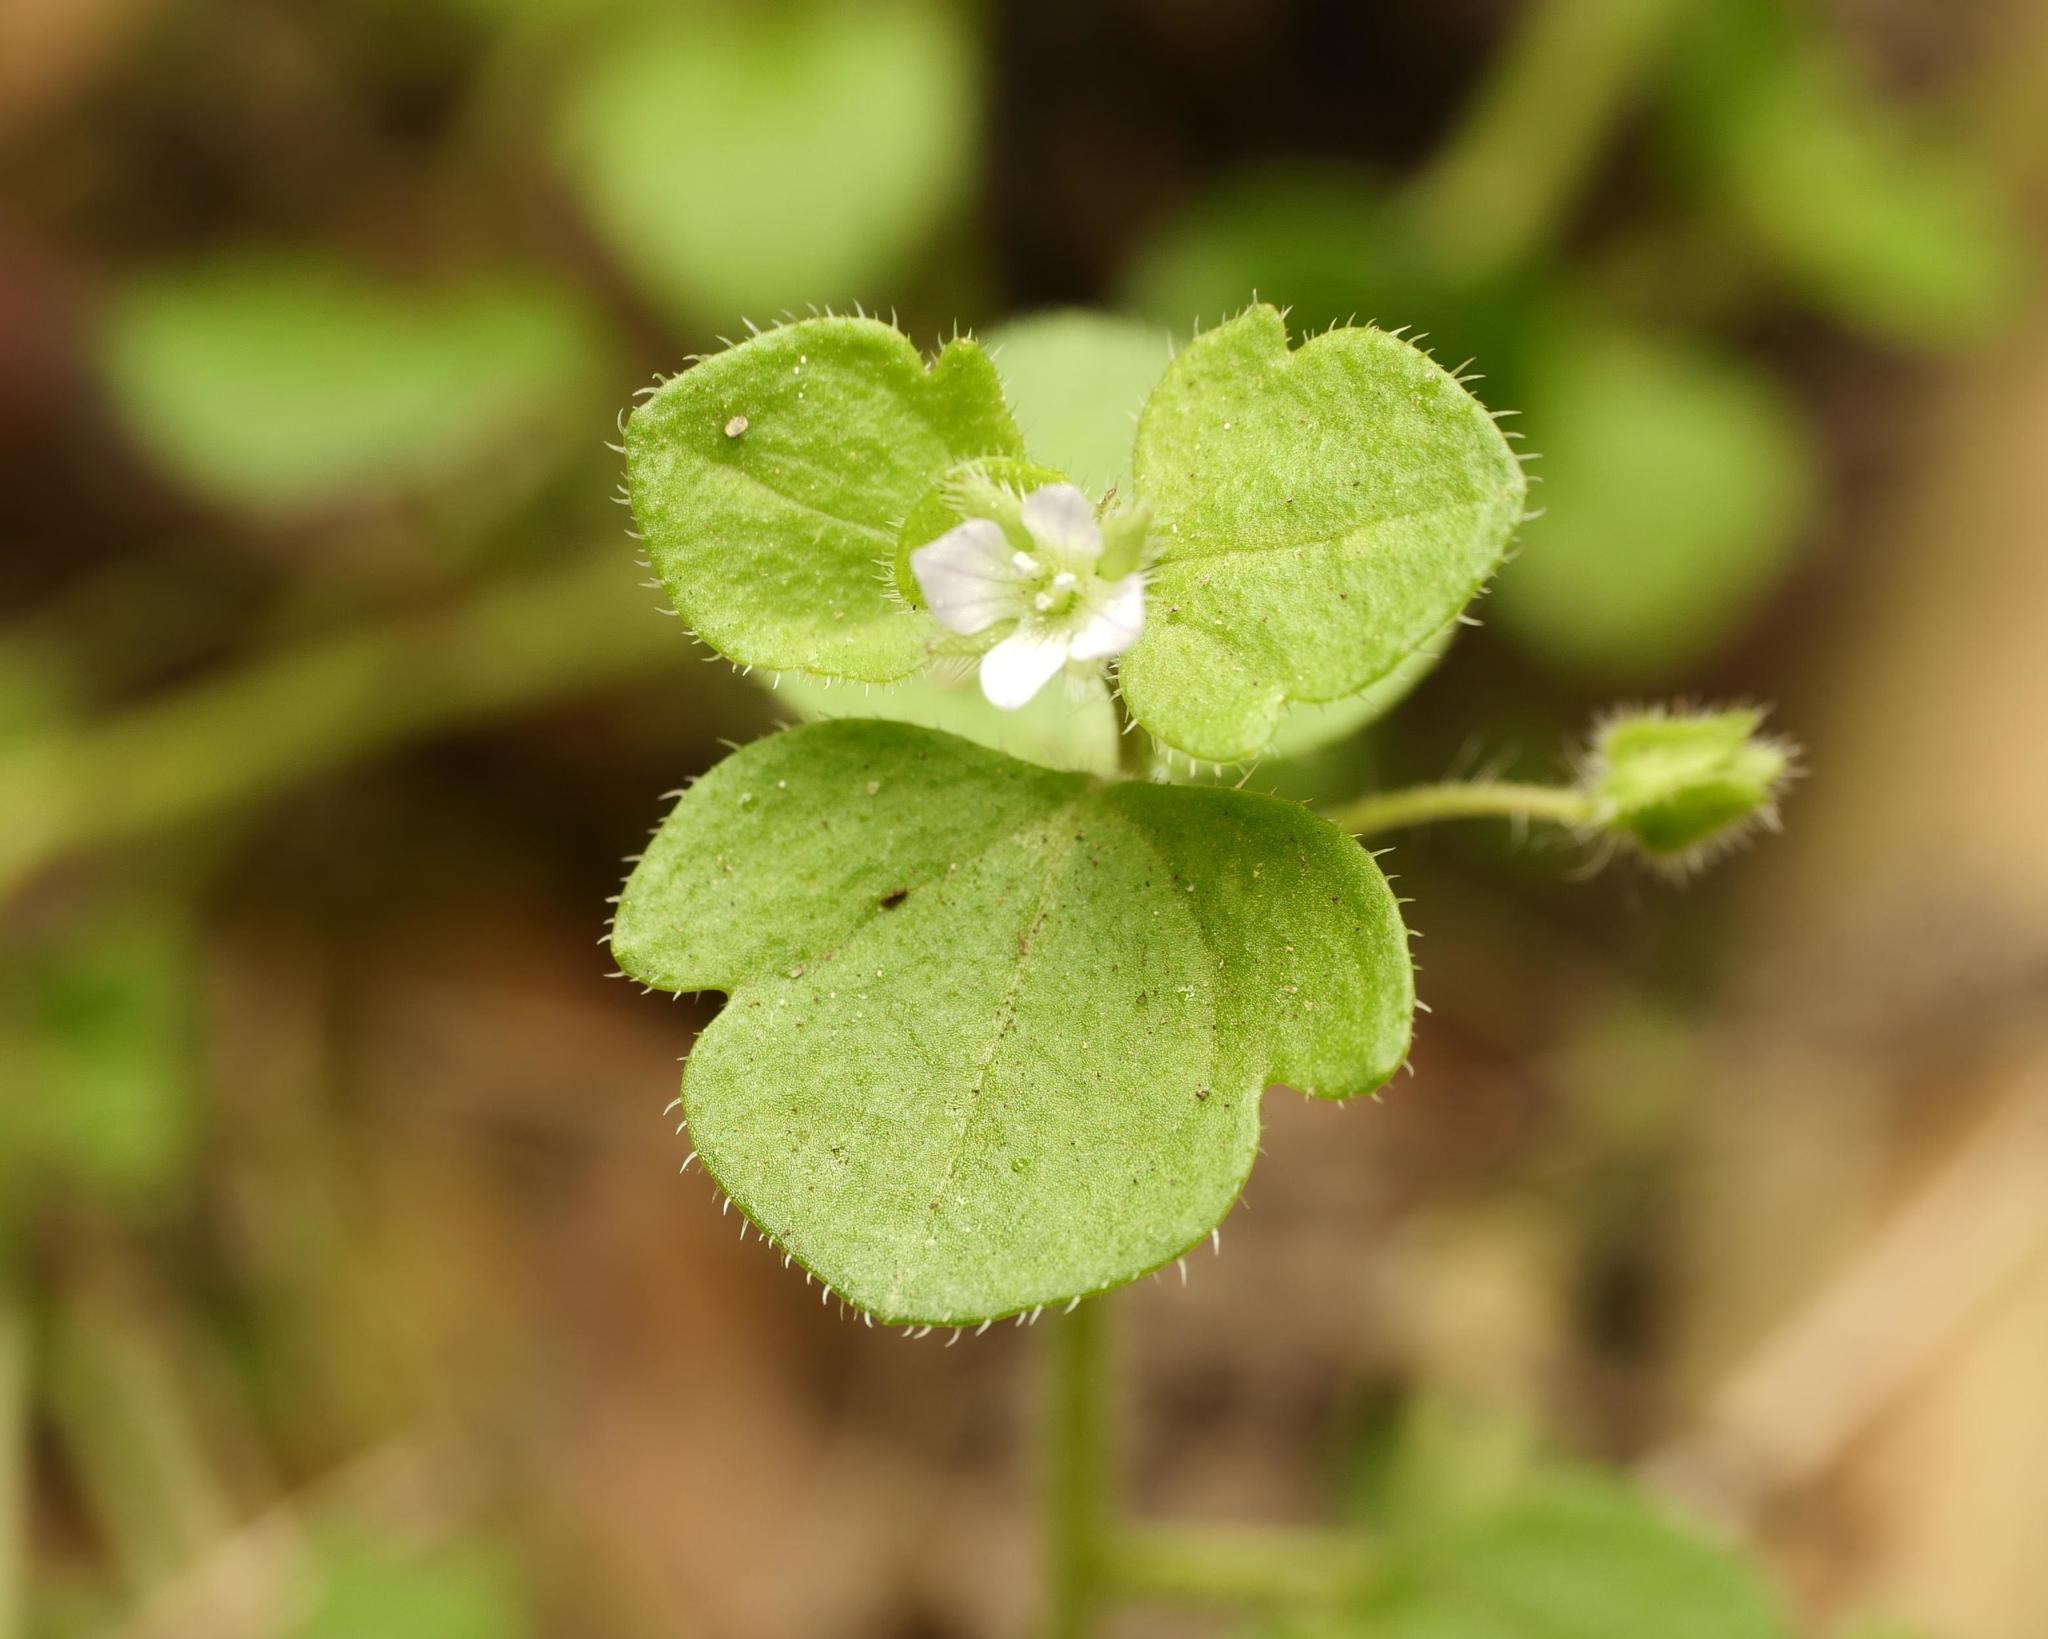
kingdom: Plantae
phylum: Tracheophyta
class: Magnoliopsida
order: Lamiales
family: Plantaginaceae
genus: Veronica
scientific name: Veronica sublobata
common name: False ivy-leaved speedwell
